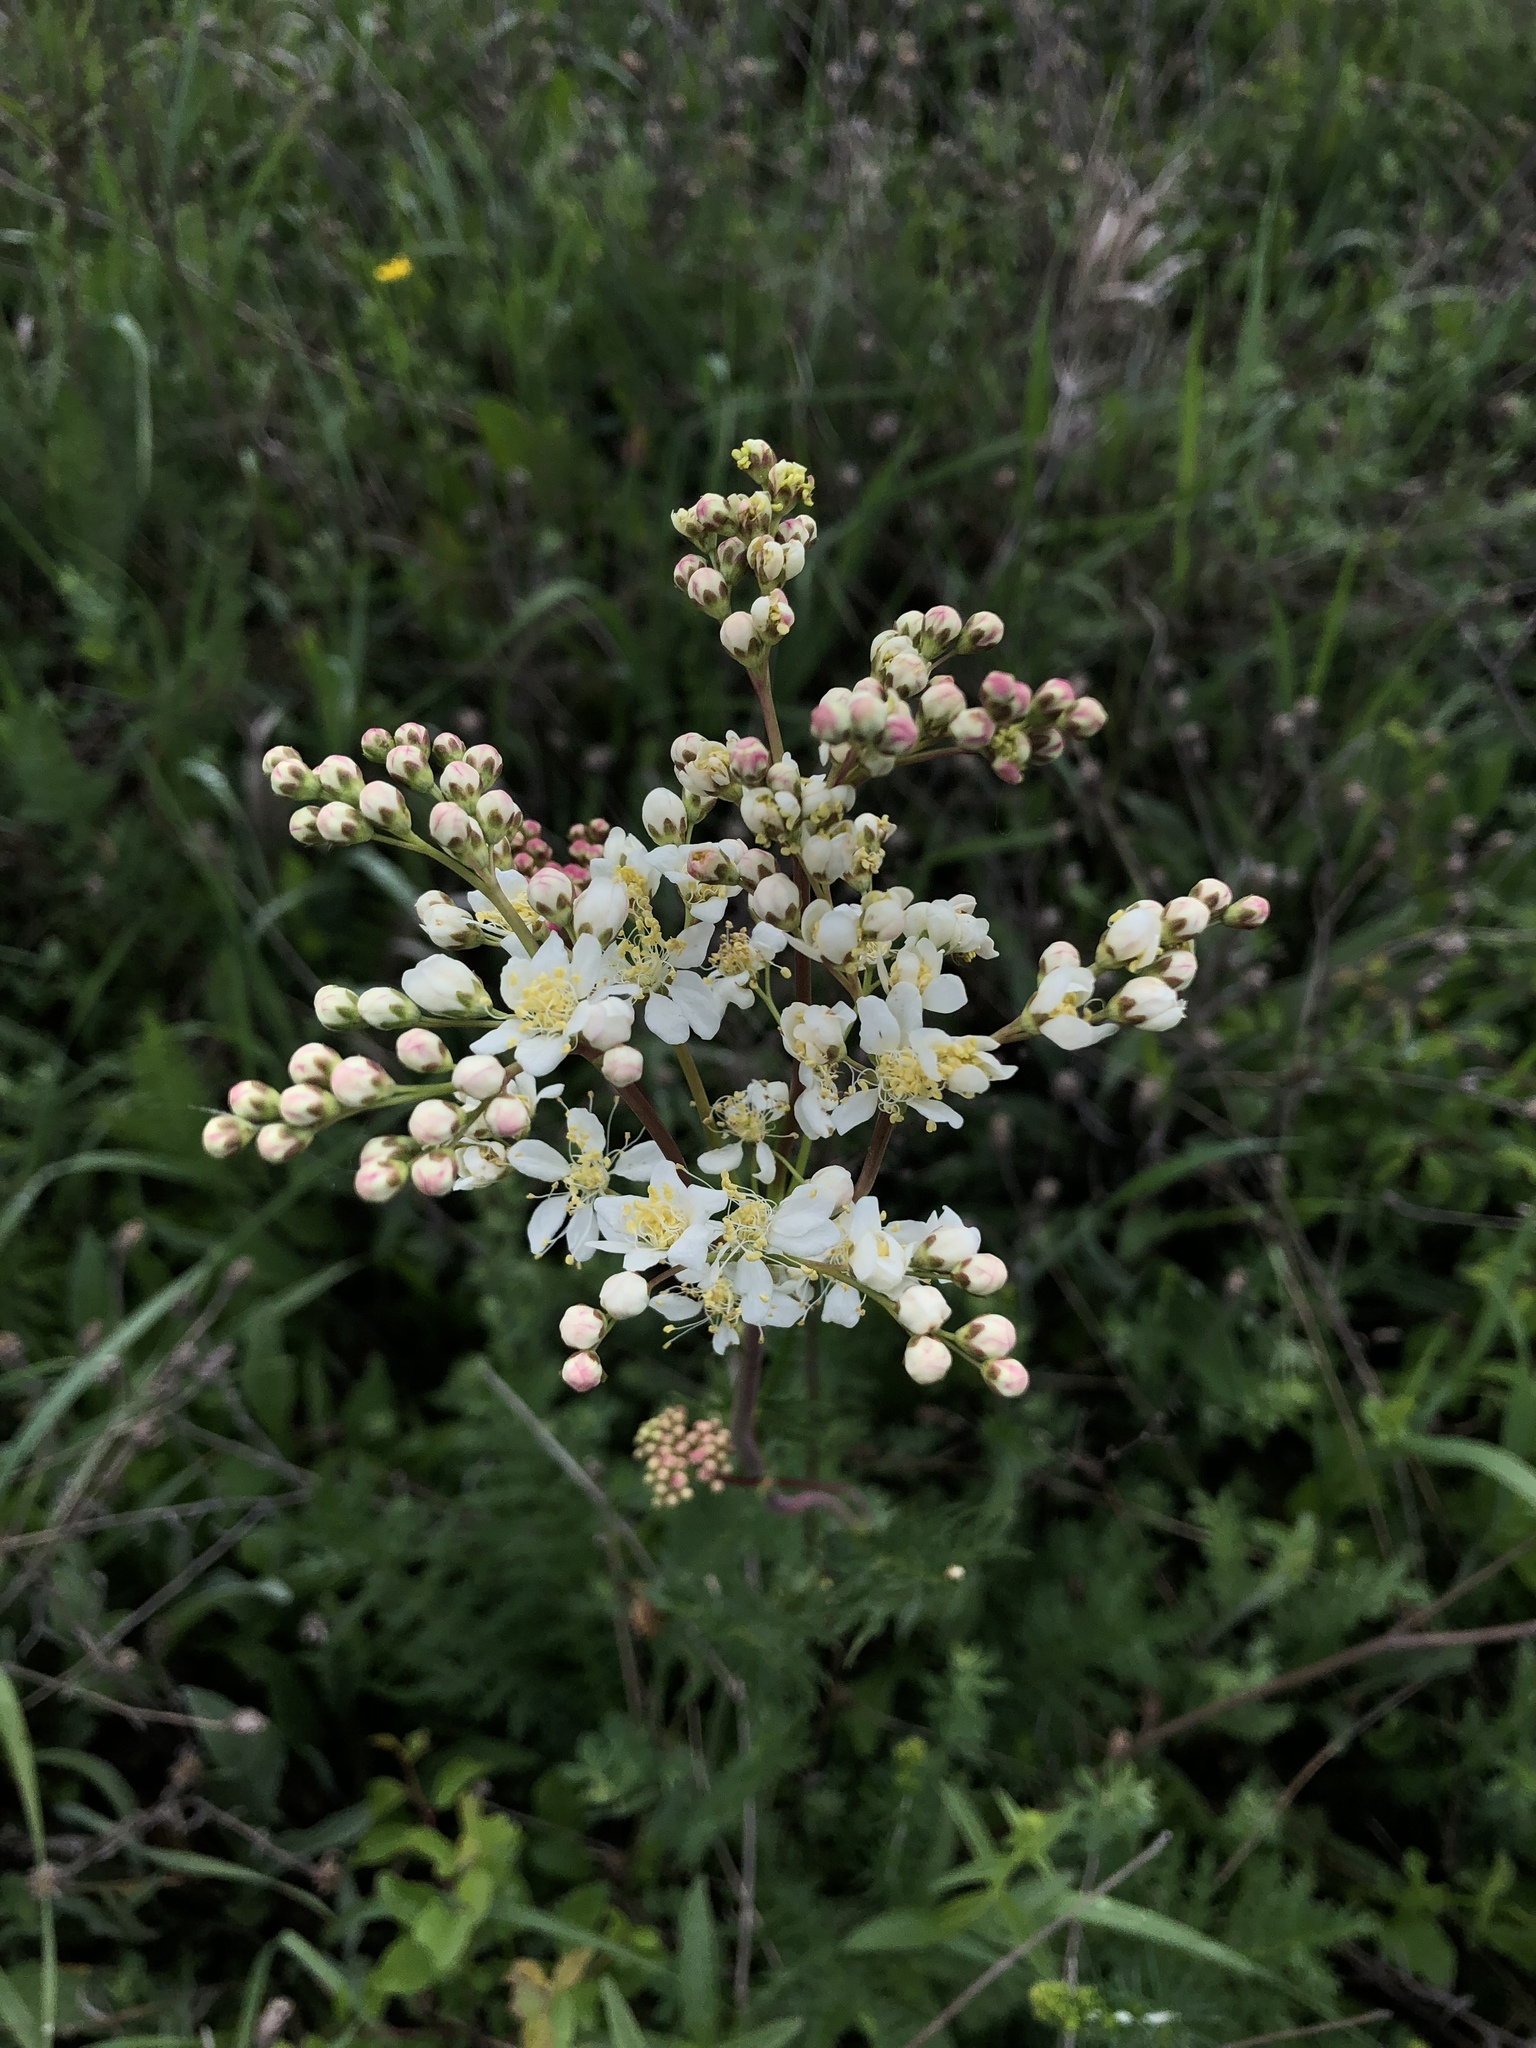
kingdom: Plantae
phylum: Tracheophyta
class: Magnoliopsida
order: Rosales
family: Rosaceae
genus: Filipendula
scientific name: Filipendula vulgaris
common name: Dropwort
